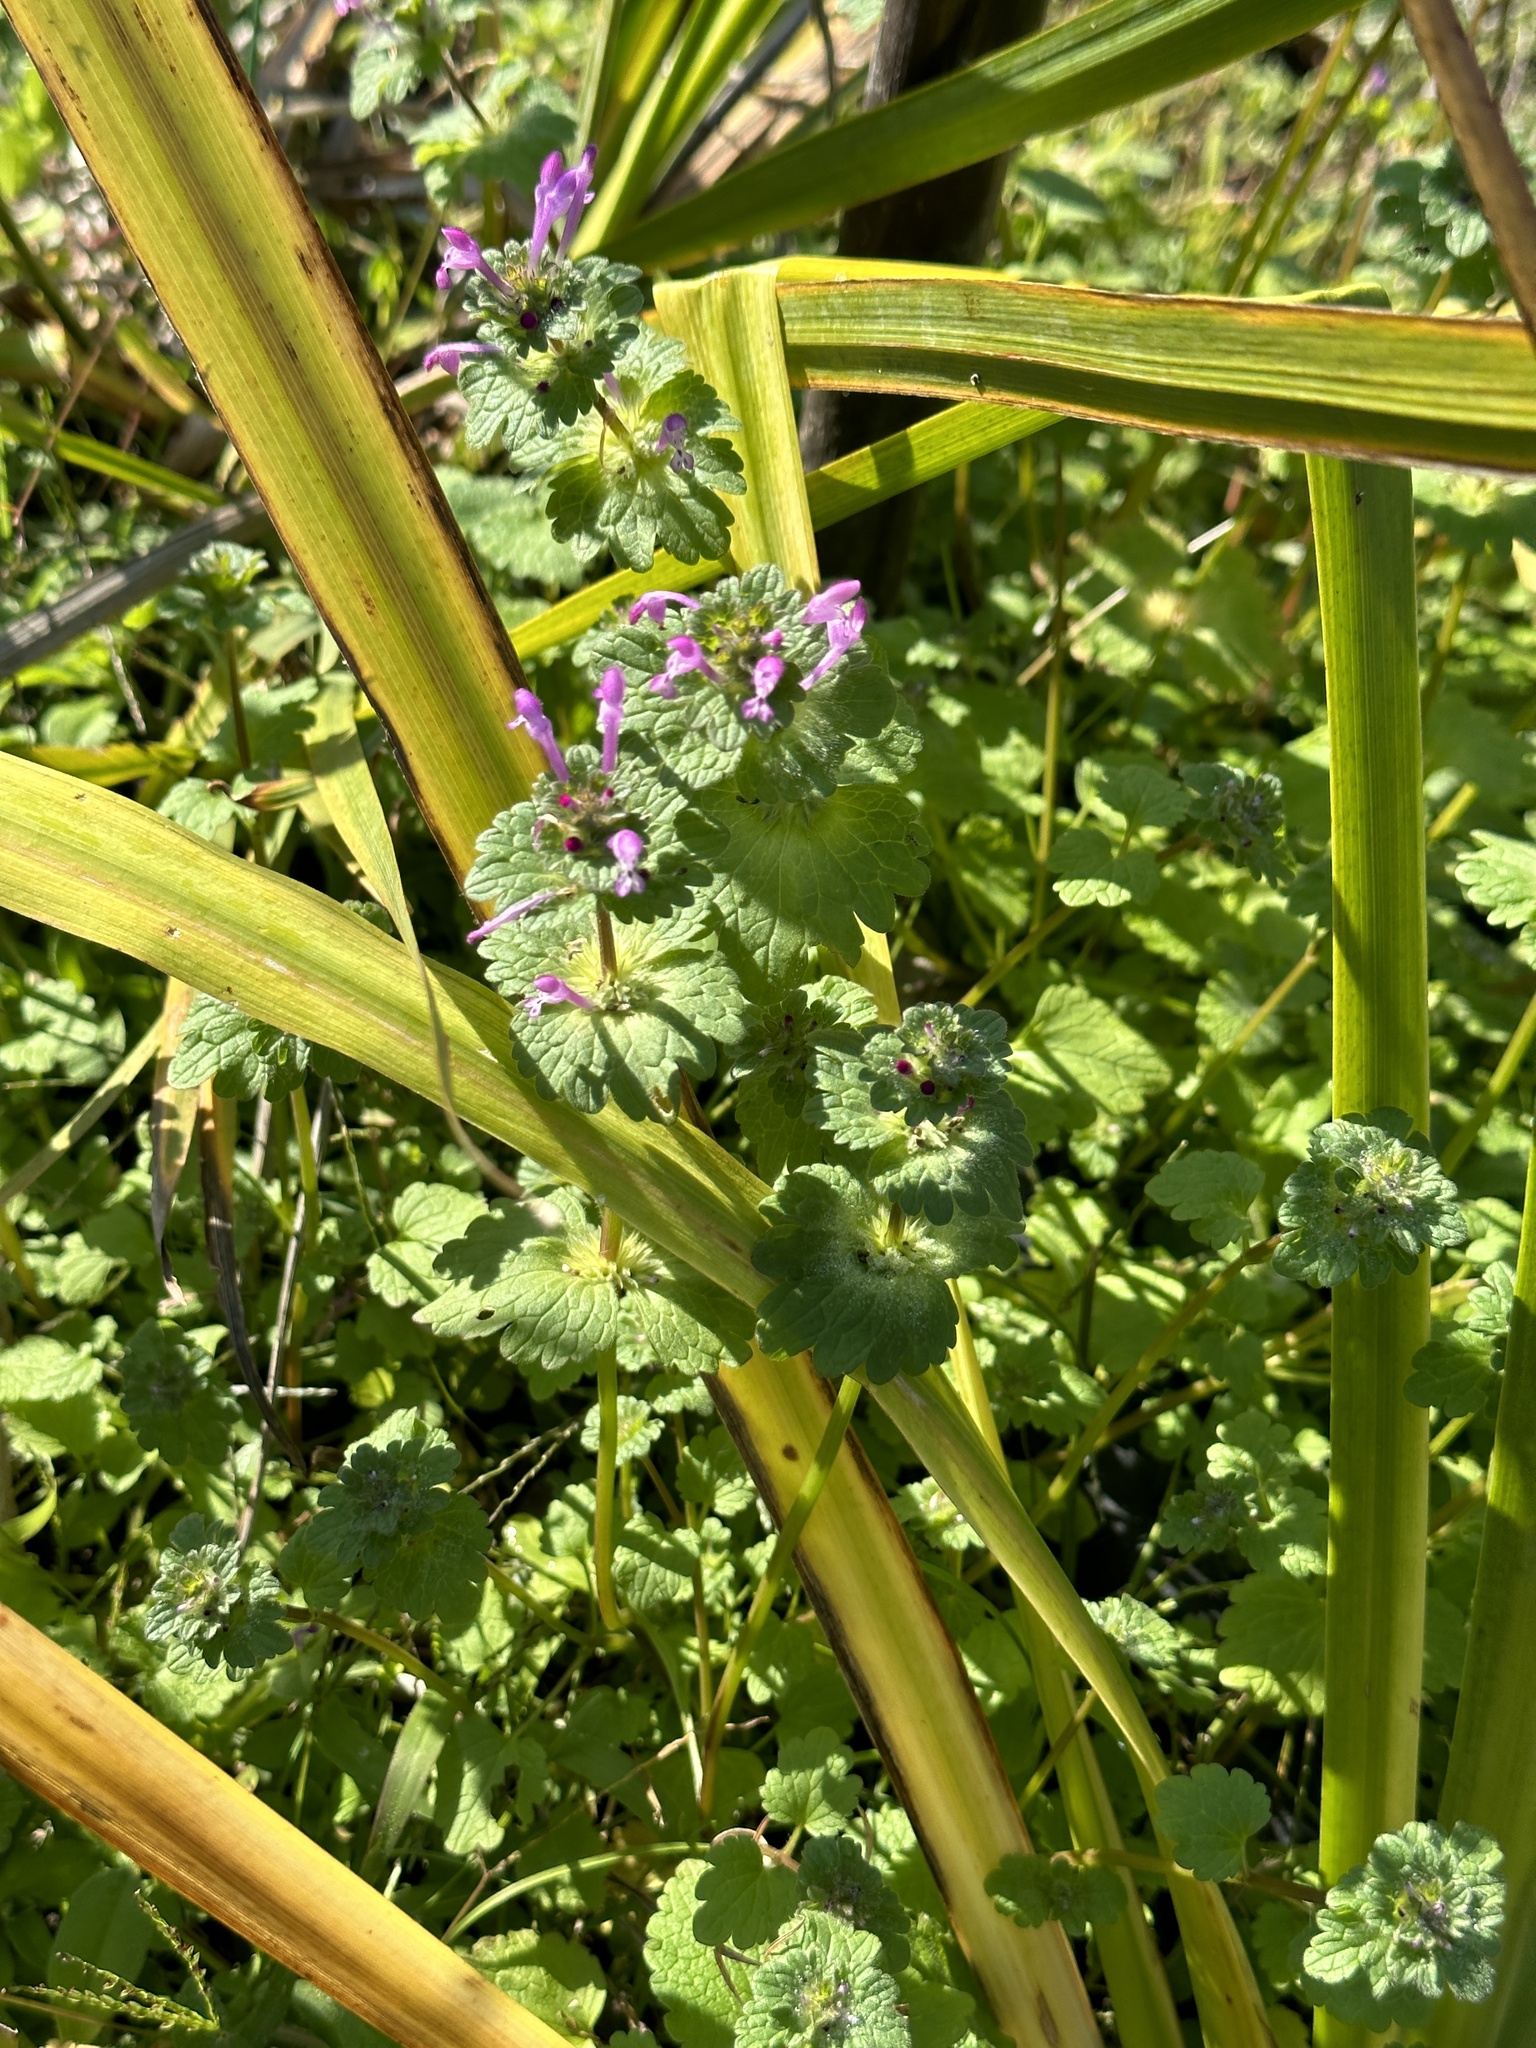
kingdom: Plantae
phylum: Tracheophyta
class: Magnoliopsida
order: Lamiales
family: Lamiaceae
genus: Lamium
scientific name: Lamium amplexicaule
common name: Henbit dead-nettle
